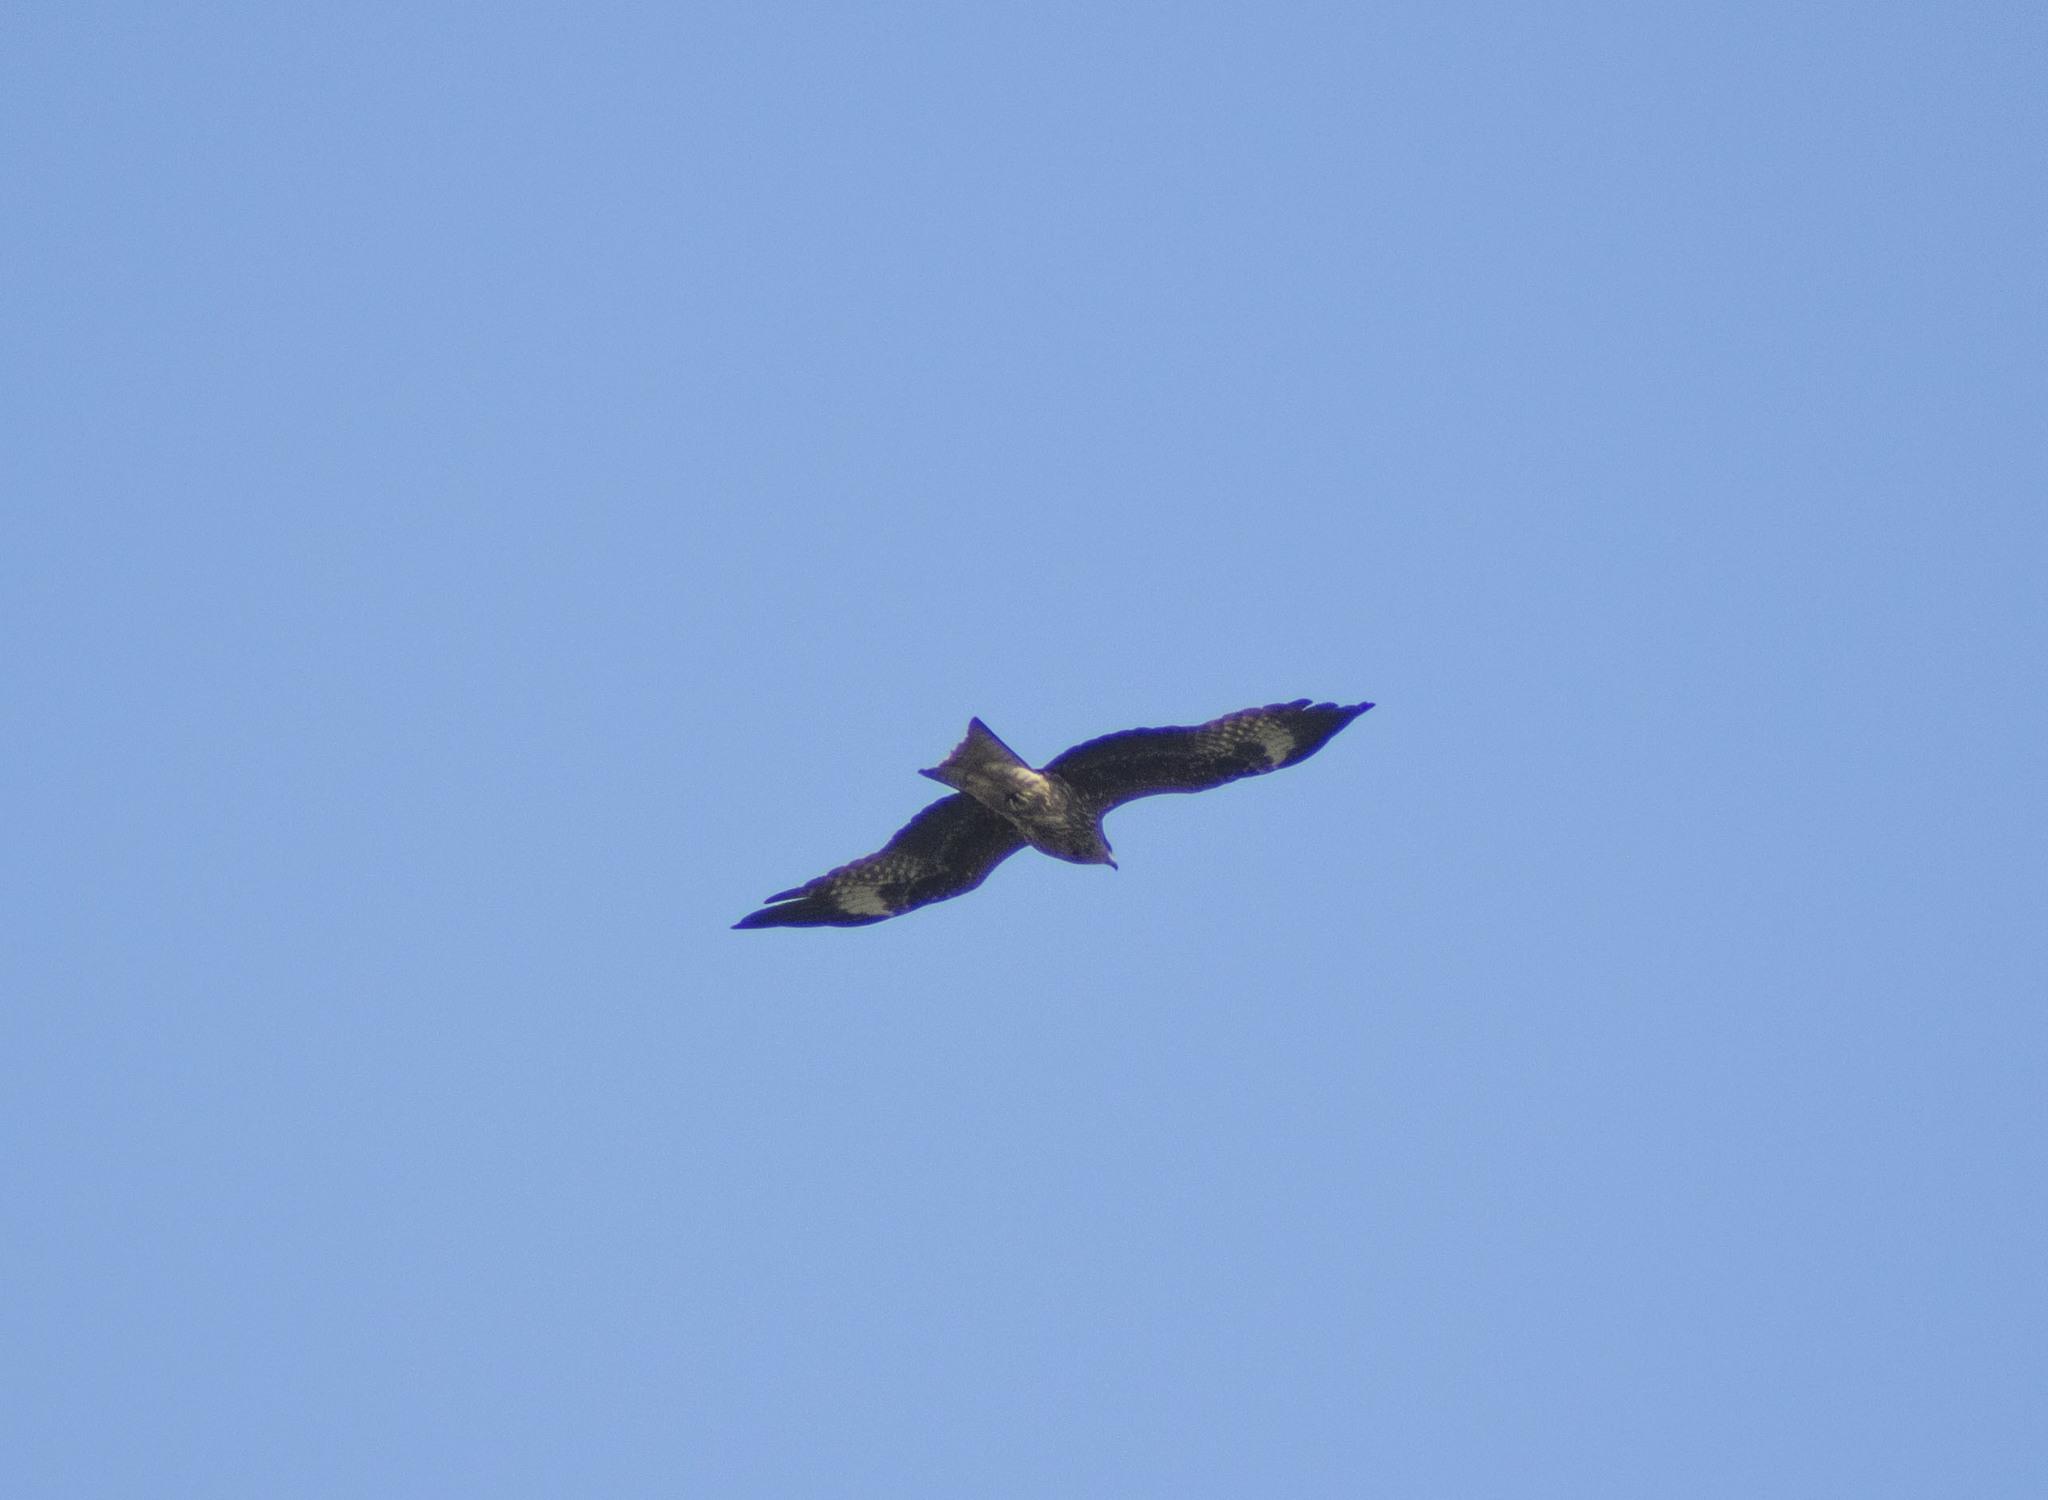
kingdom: Animalia
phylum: Chordata
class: Aves
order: Accipitriformes
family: Accipitridae
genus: Milvus
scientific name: Milvus migrans
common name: Black kite
